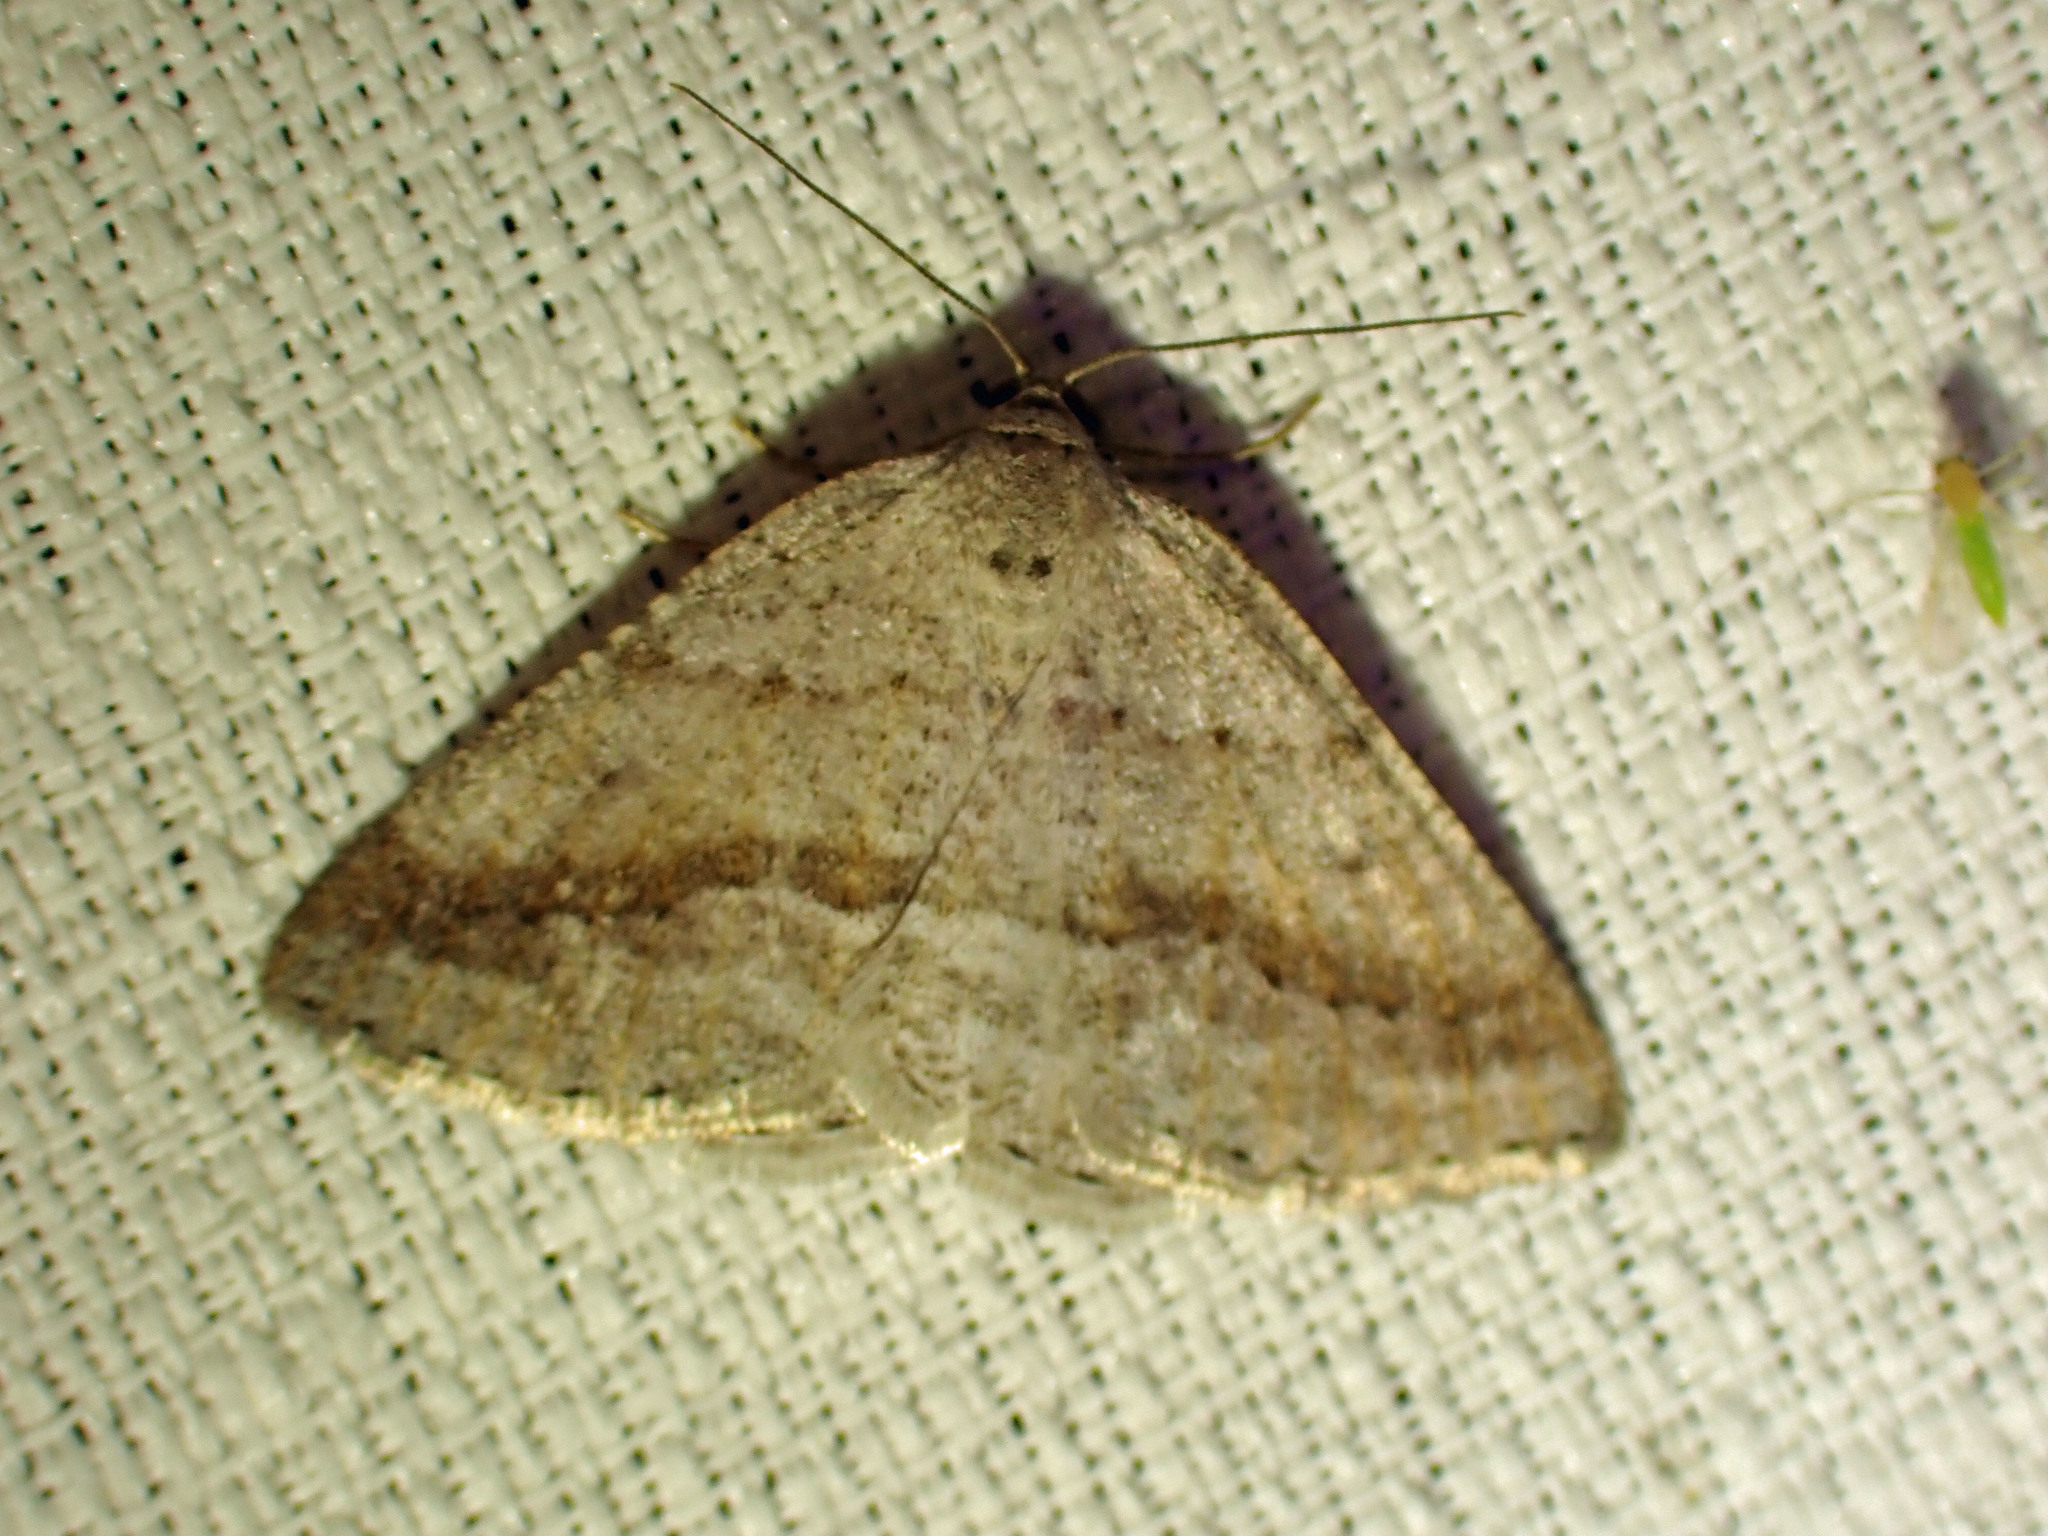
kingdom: Animalia
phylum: Arthropoda
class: Insecta
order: Lepidoptera
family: Geometridae
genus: Tacparia
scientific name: Tacparia detersata
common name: Pale alder moth
